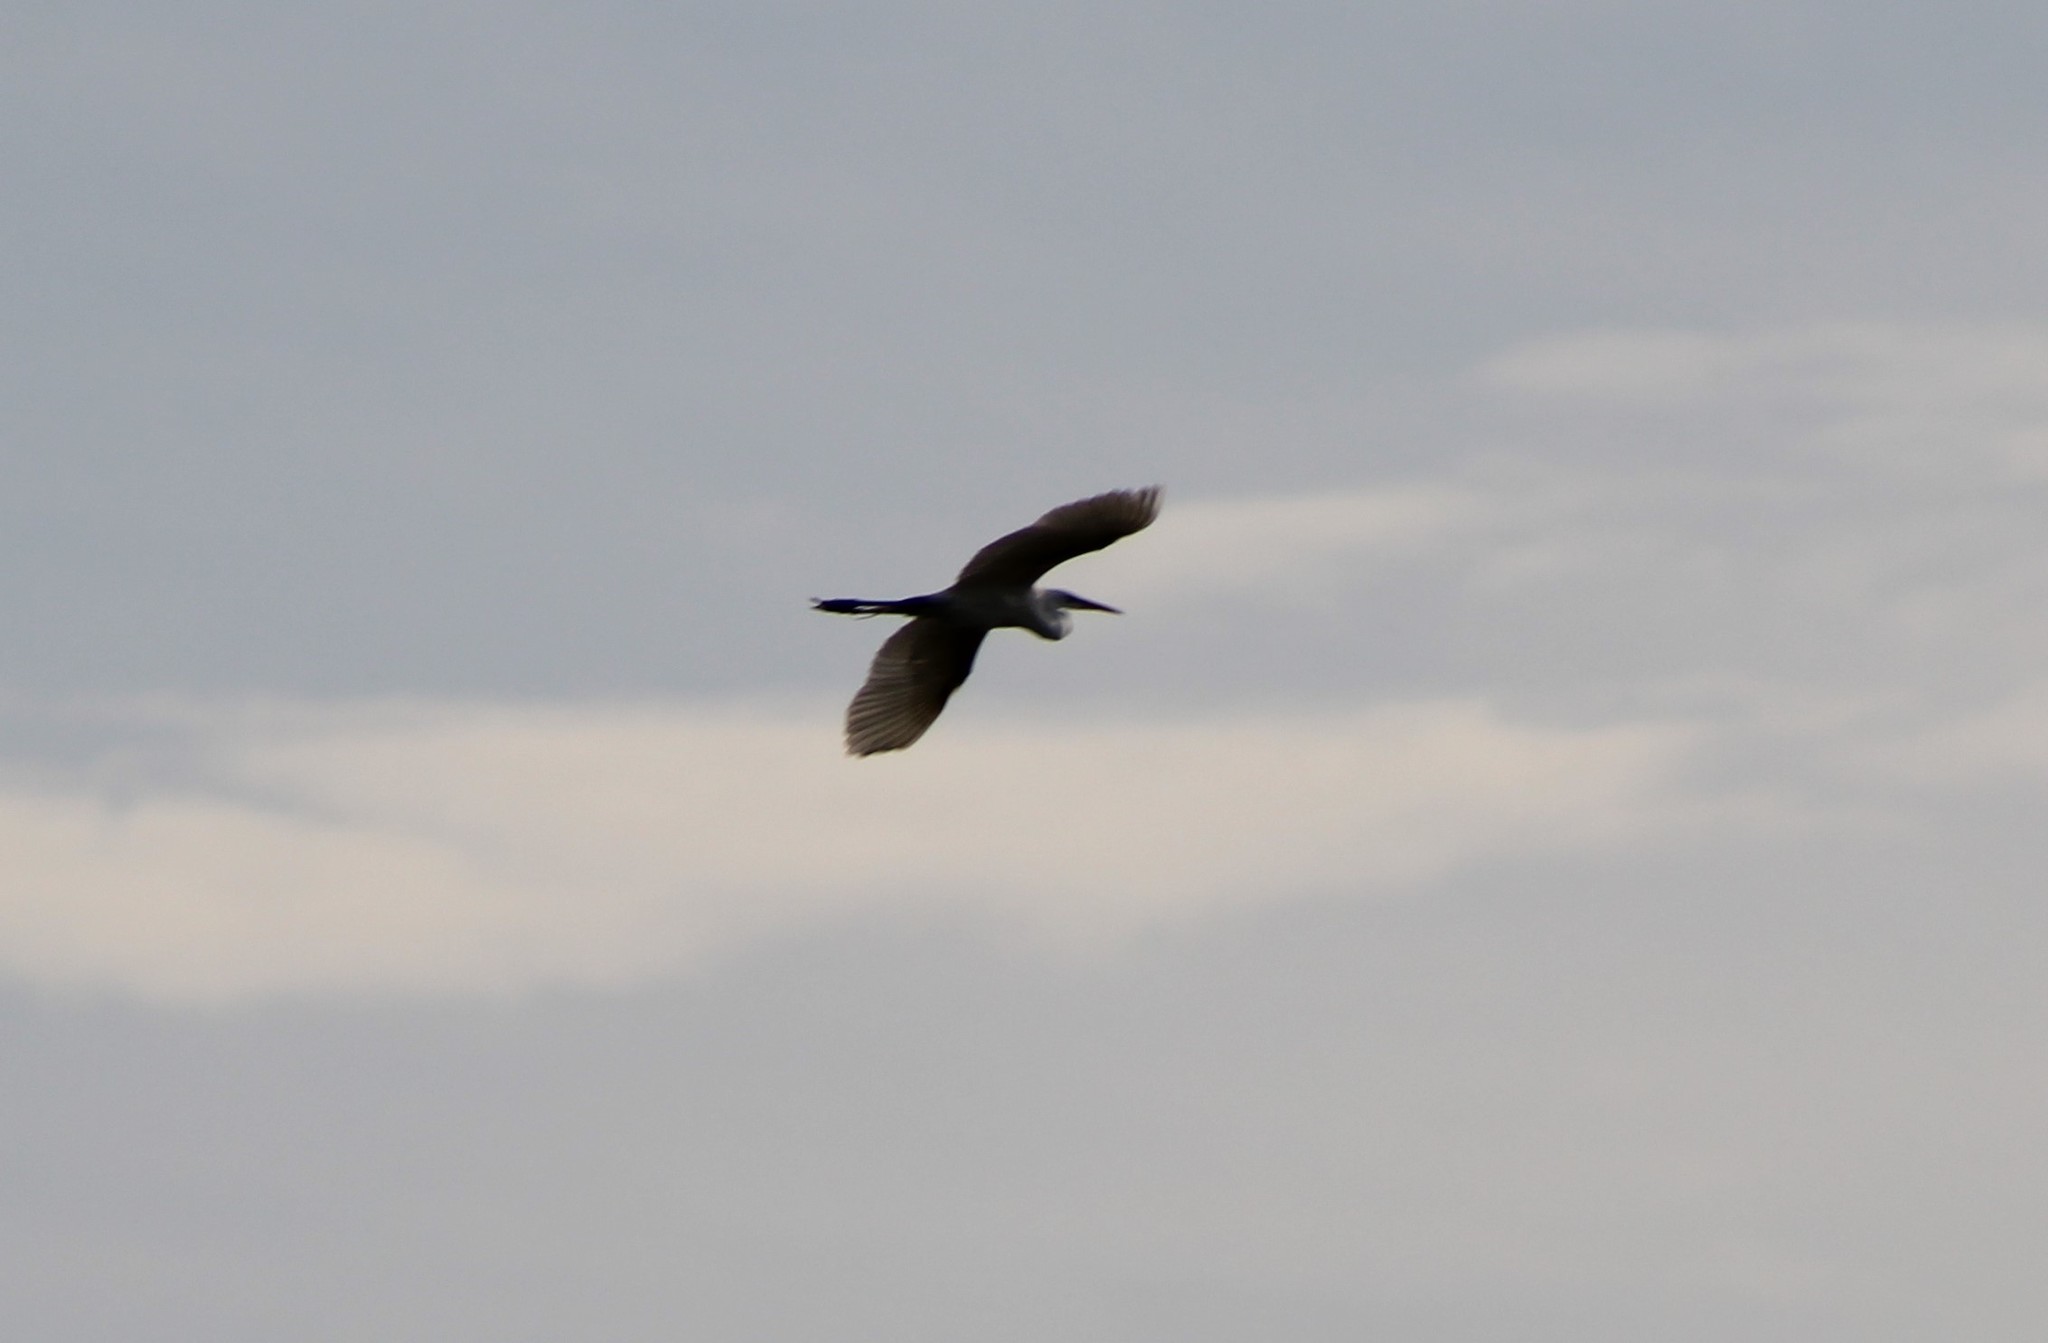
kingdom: Animalia
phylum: Chordata
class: Aves
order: Pelecaniformes
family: Ardeidae
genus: Ardea
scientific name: Ardea herodias
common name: Great blue heron
